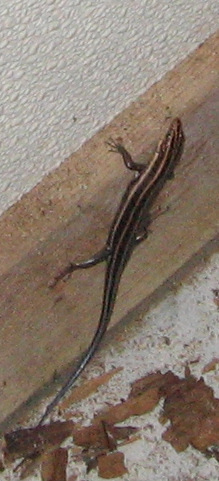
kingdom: Animalia
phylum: Chordata
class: Squamata
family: Scincidae
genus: Plestiodon
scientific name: Plestiodon fasciatus
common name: Five-lined skink
